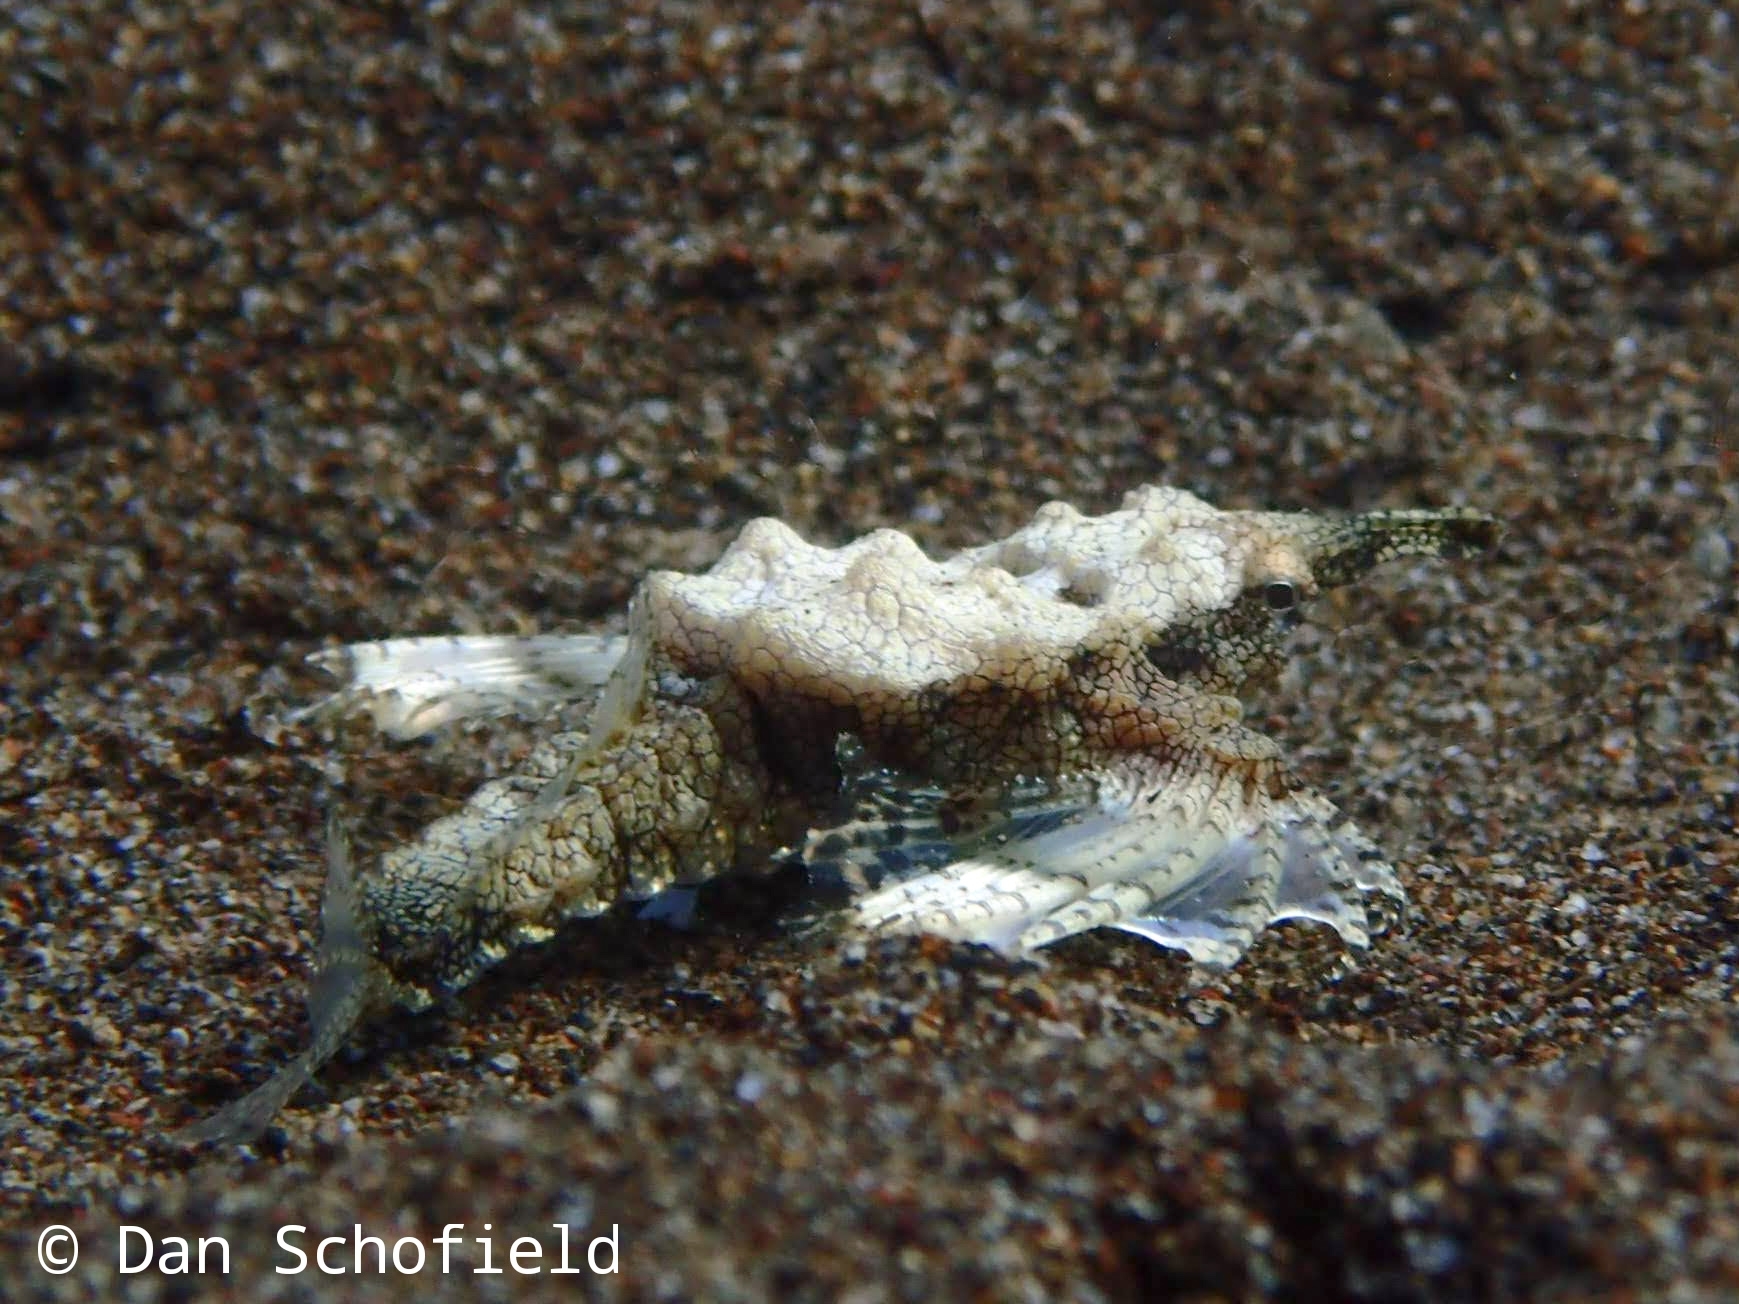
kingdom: Animalia
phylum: Chordata
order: Gasterosteiformes
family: Pegasidae
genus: Eurypegasus
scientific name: Eurypegasus draconis
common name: Short dragonfish
